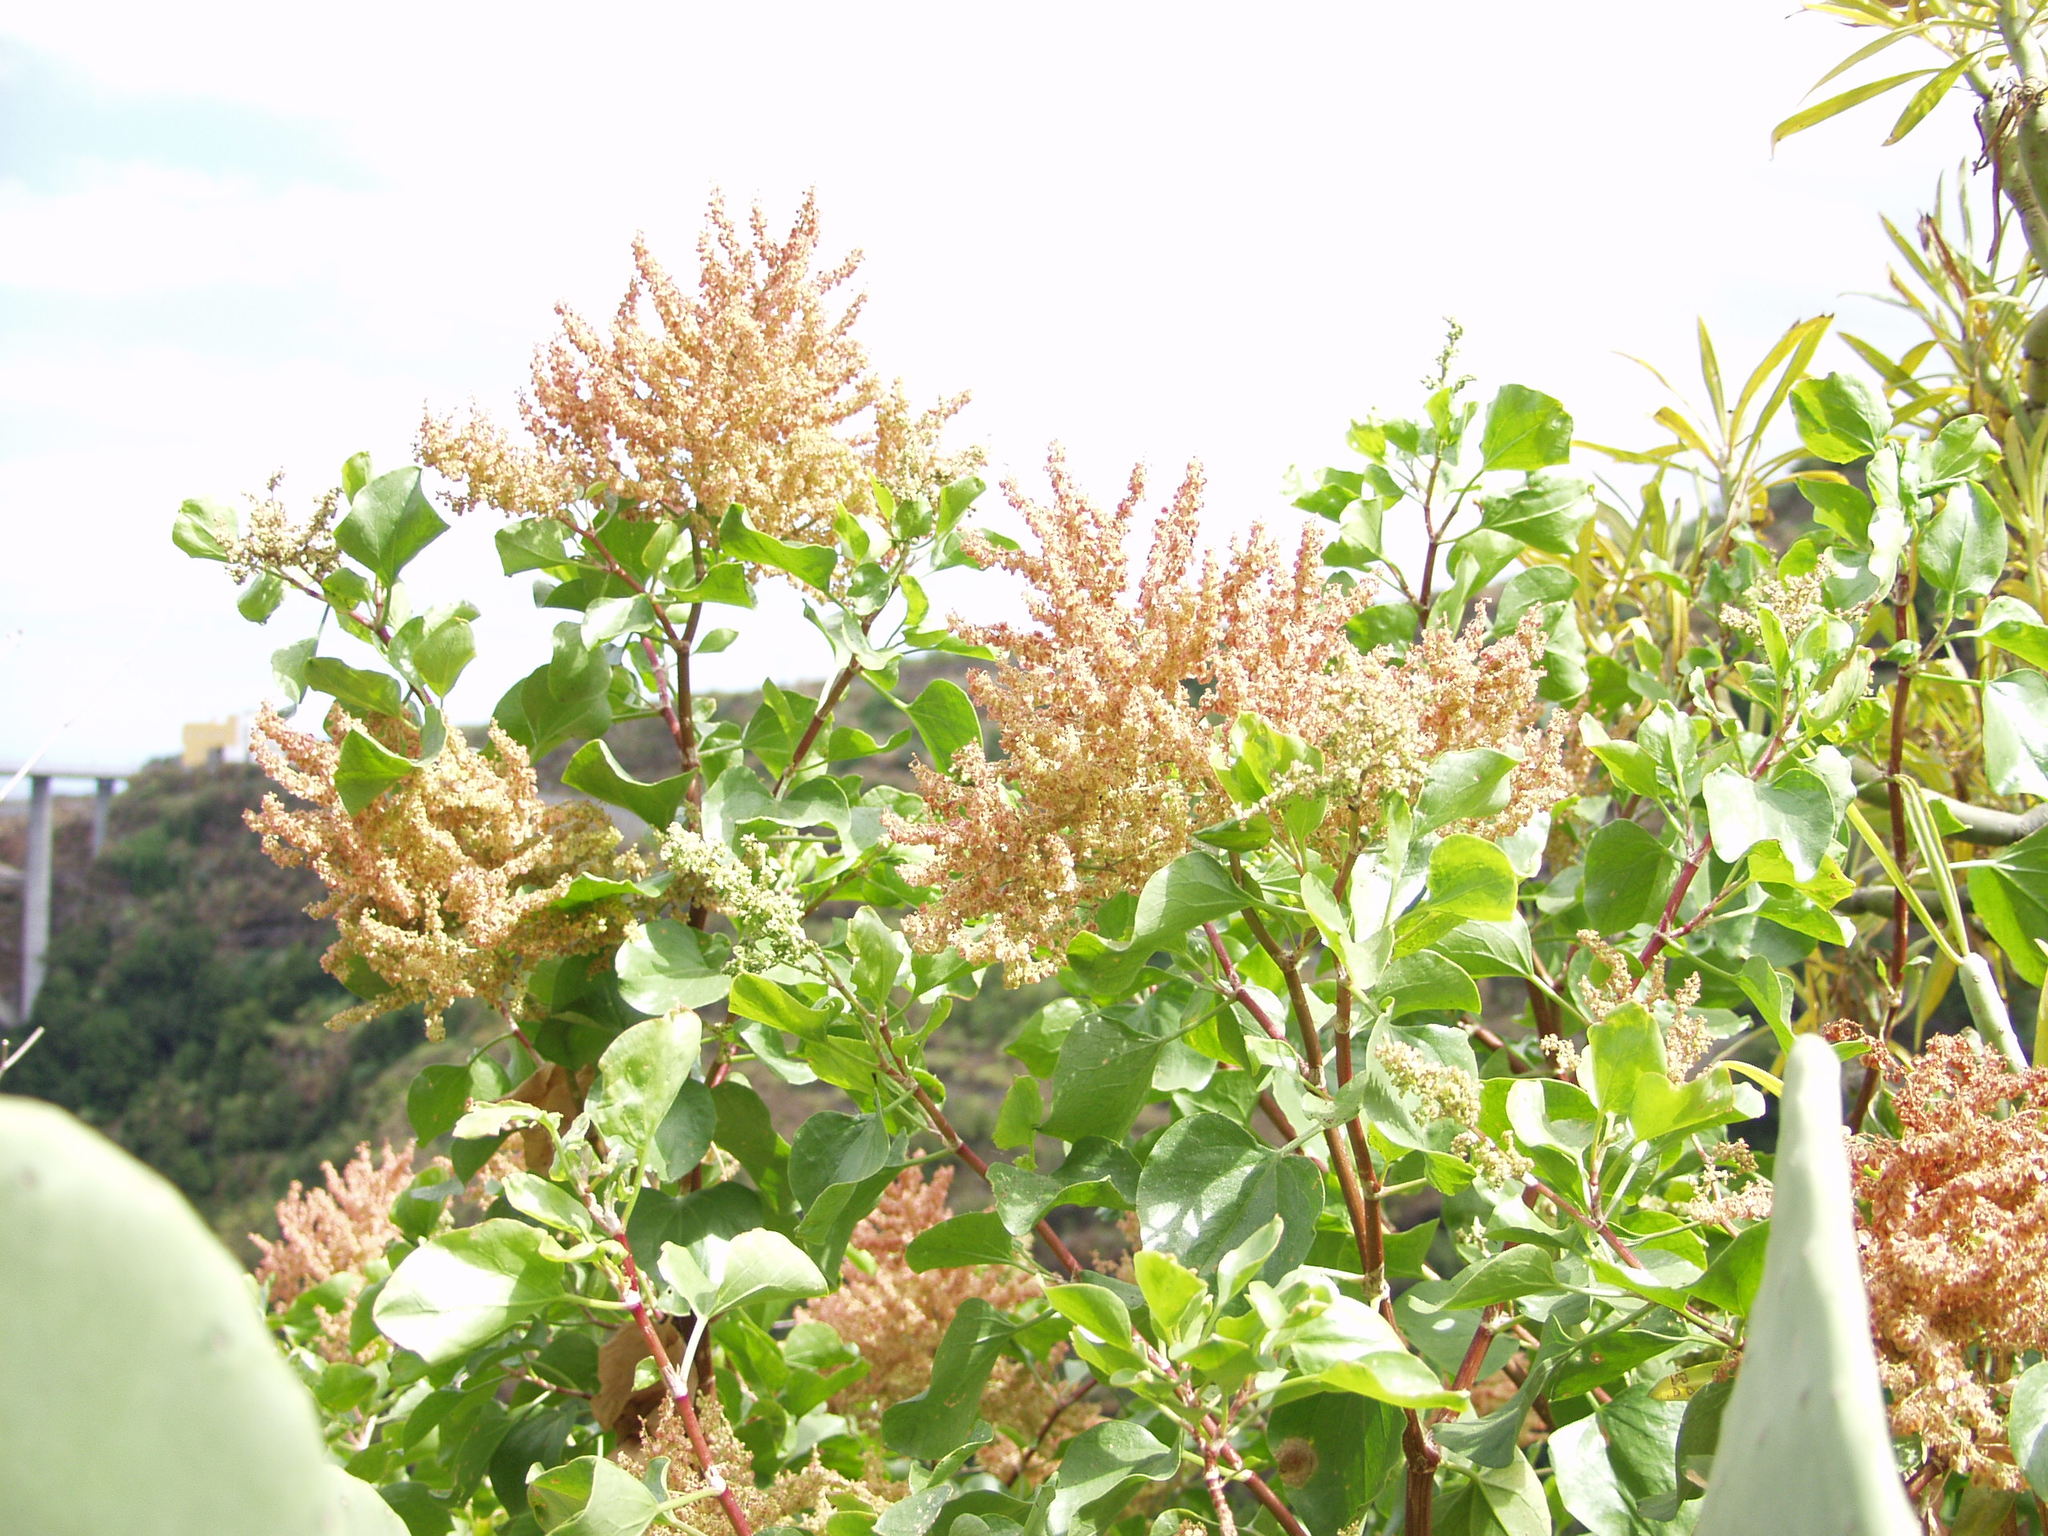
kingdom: Plantae
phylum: Tracheophyta
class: Magnoliopsida
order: Caryophyllales
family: Polygonaceae
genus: Rumex
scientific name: Rumex lunaria
